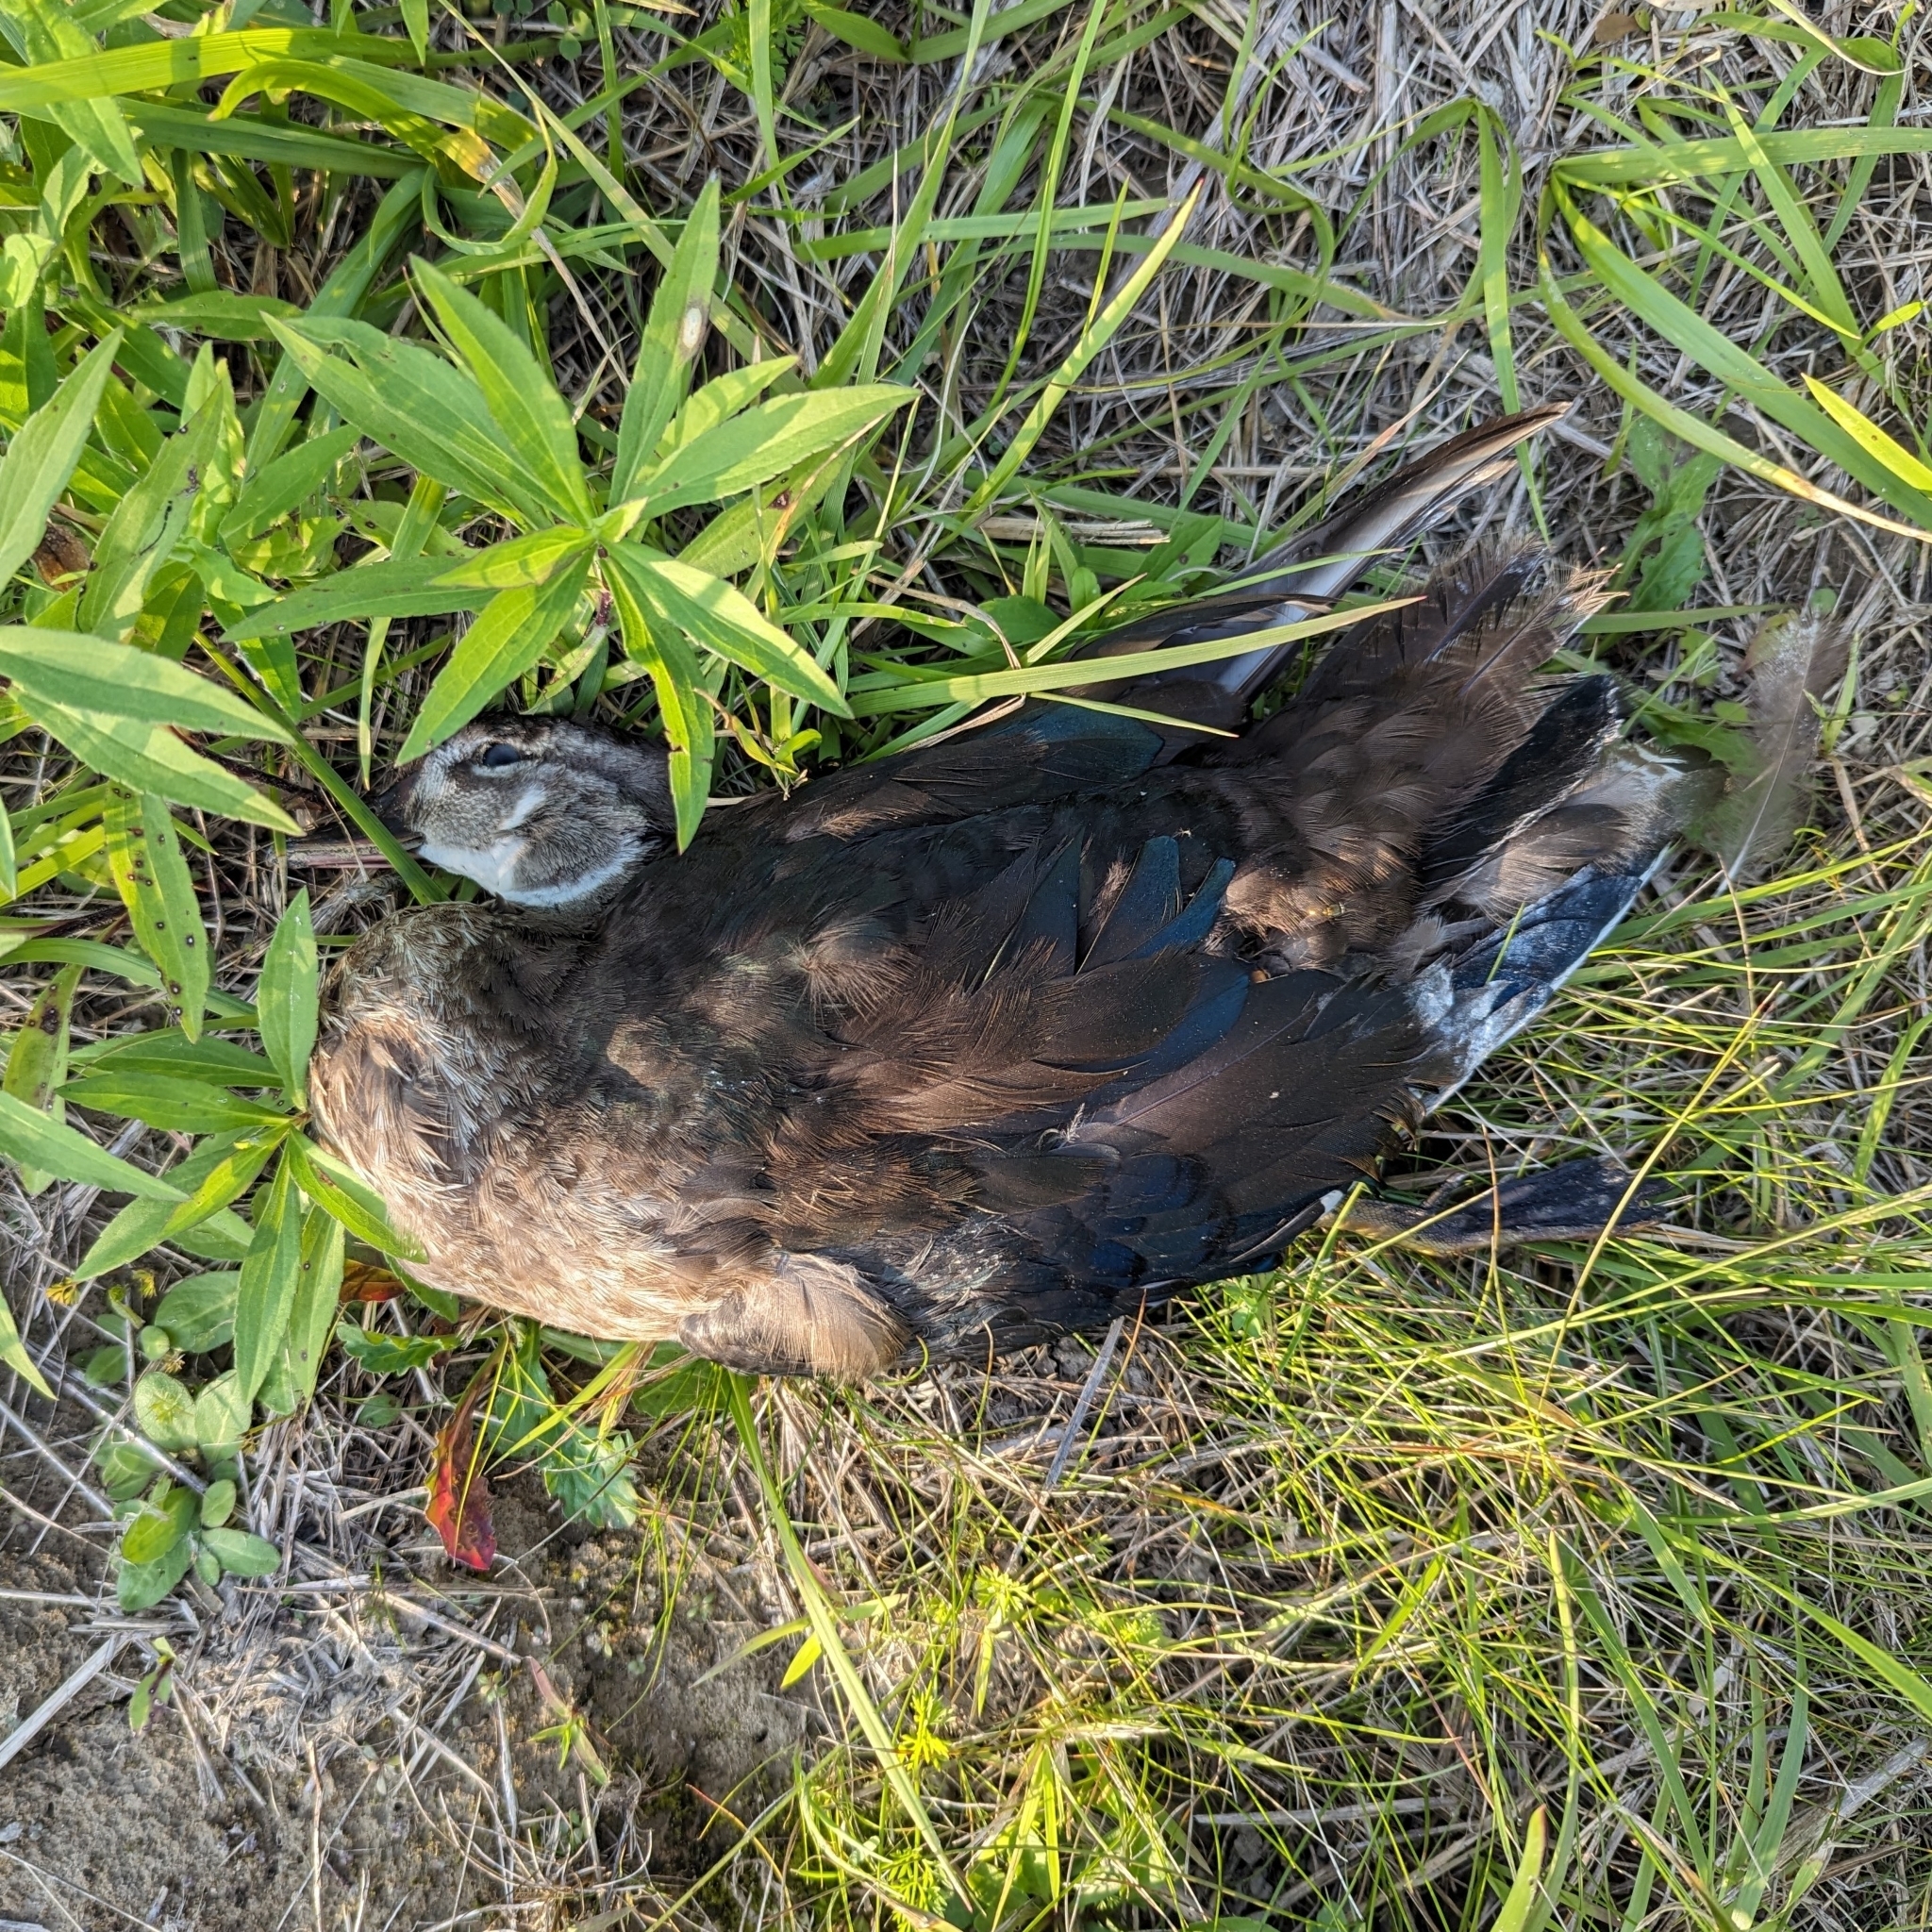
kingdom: Animalia
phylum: Chordata
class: Aves
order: Anseriformes
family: Anatidae
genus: Aix
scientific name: Aix sponsa
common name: Wood duck
